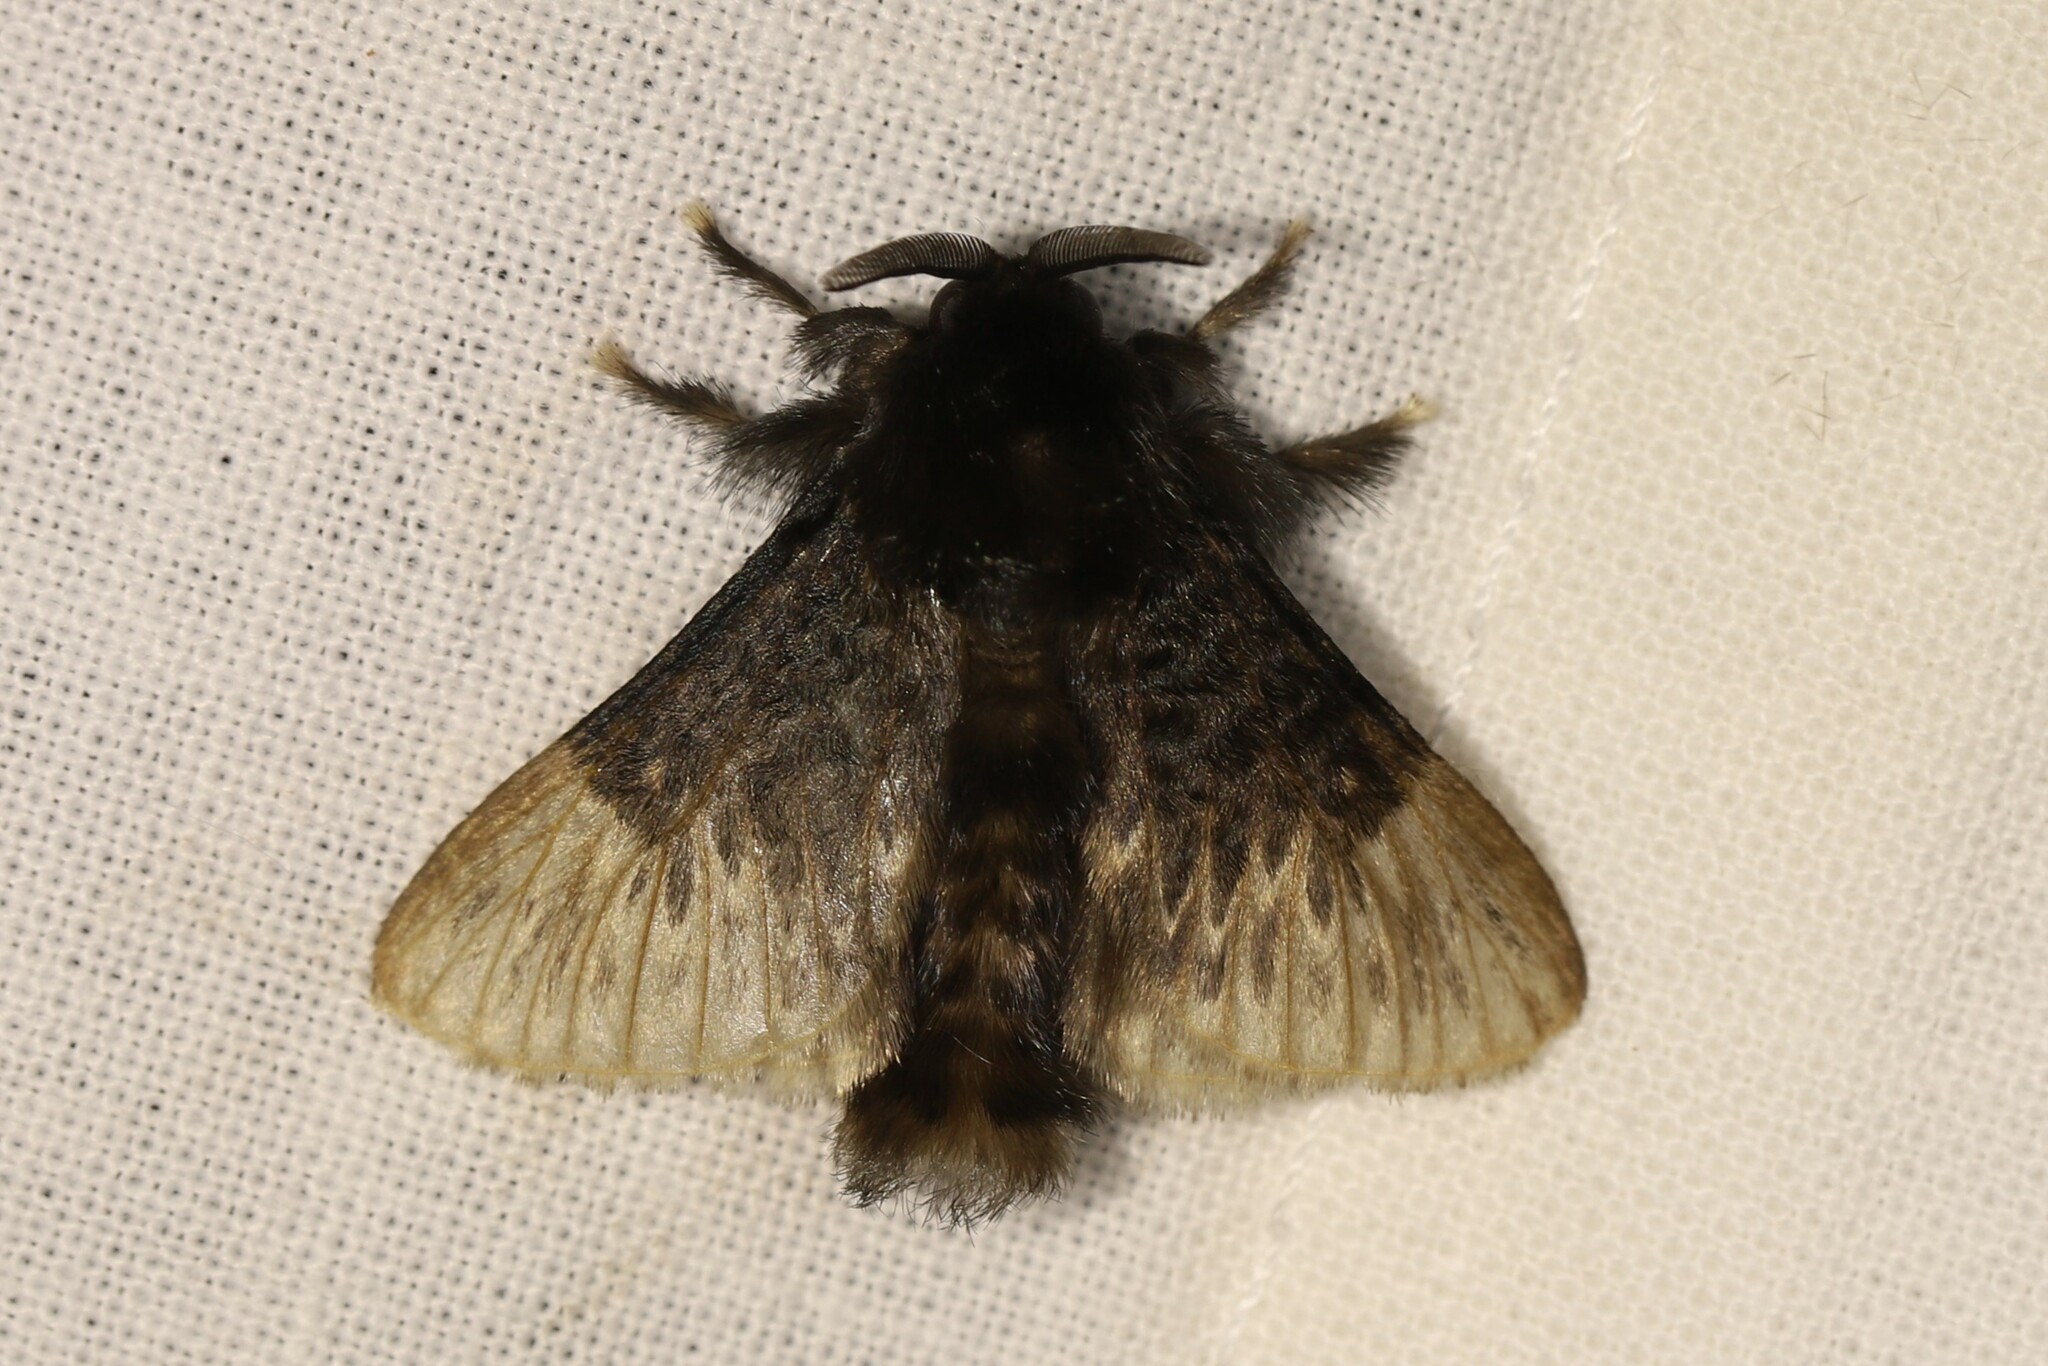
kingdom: Animalia
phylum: Arthropoda
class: Insecta
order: Lepidoptera
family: Megalopygidae
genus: Podalia
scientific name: Podalia thanatos
